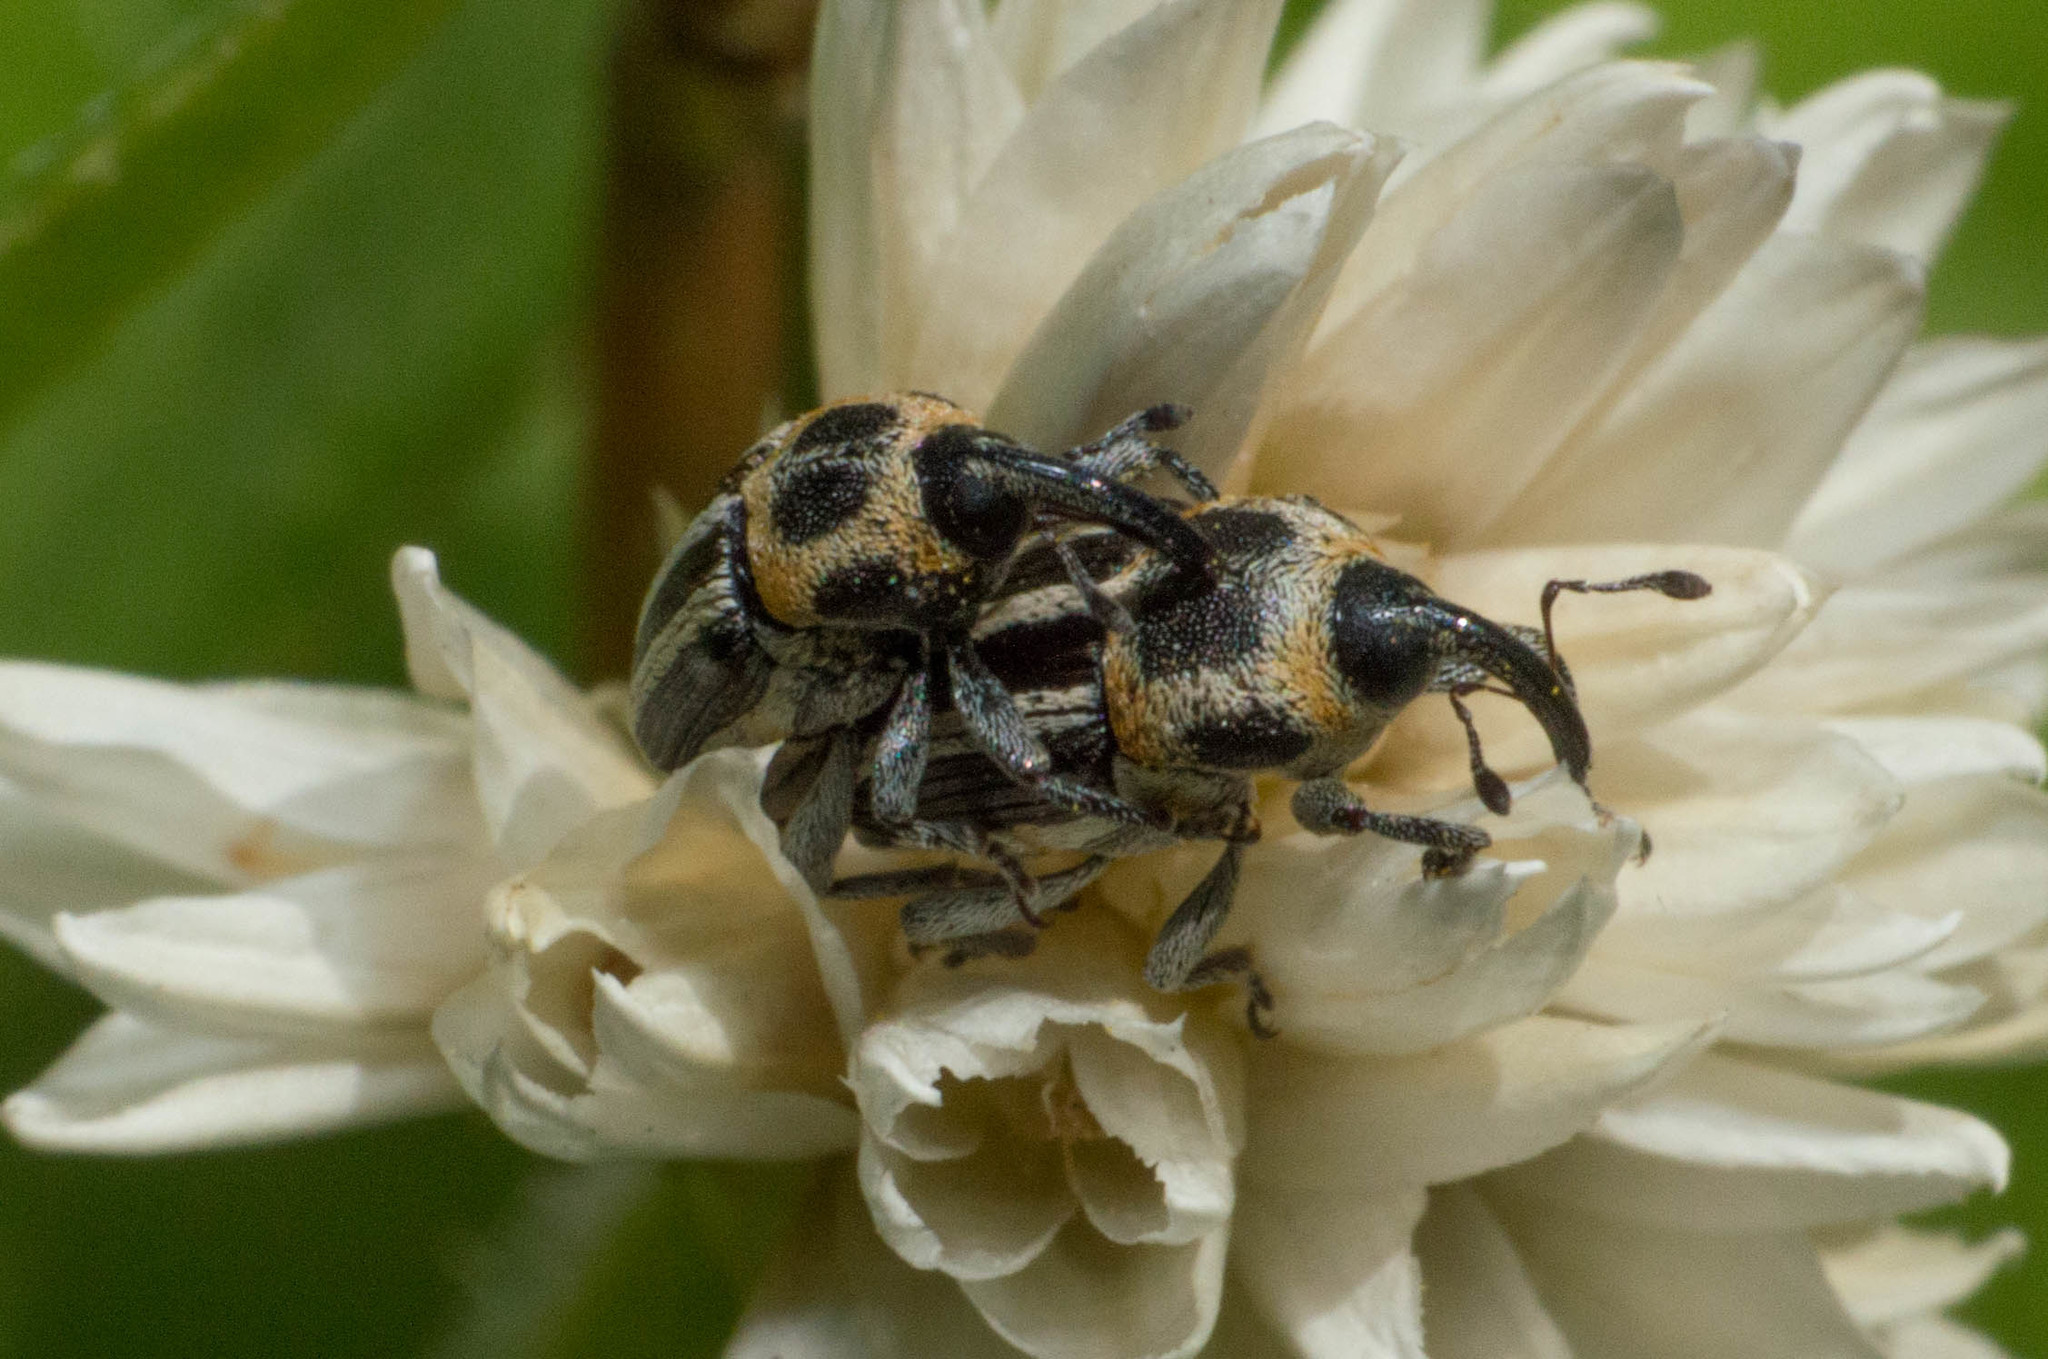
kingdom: Animalia
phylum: Arthropoda
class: Insecta
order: Coleoptera
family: Curculionidae
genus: Nicentrus
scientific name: Nicentrus circumcinctus
